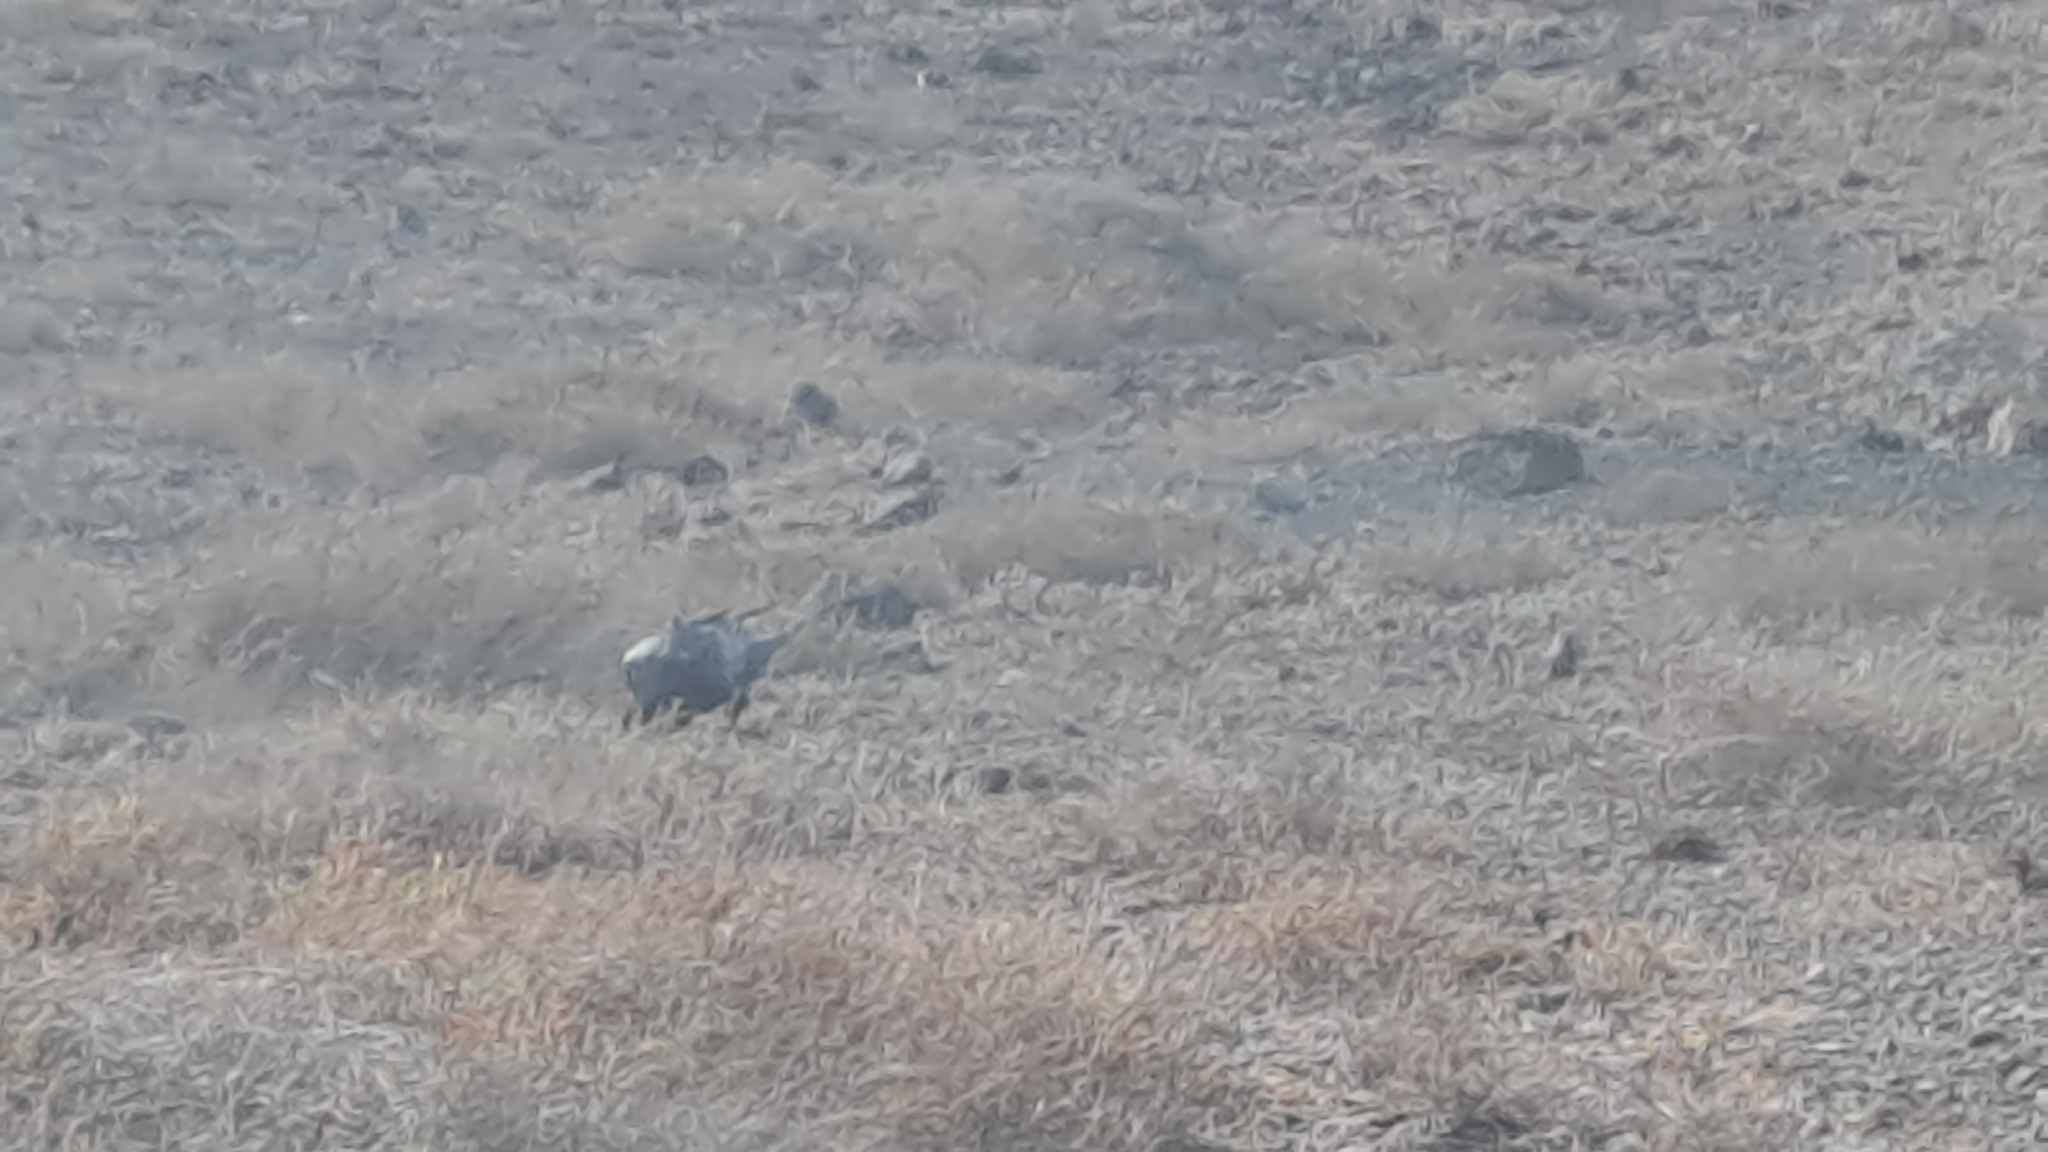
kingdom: Animalia
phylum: Chordata
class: Aves
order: Passeriformes
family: Corvidae
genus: Corvus
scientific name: Corvus corax
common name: Common raven
